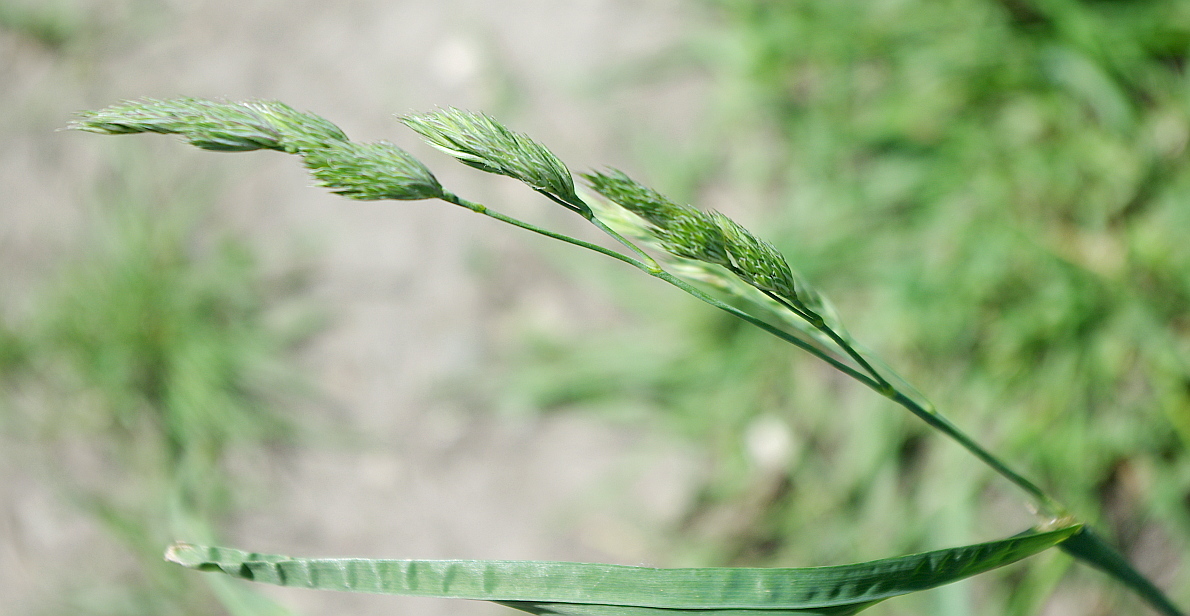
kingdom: Plantae
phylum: Tracheophyta
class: Liliopsida
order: Poales
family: Poaceae
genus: Dactylis
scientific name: Dactylis glomerata
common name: Orchardgrass
